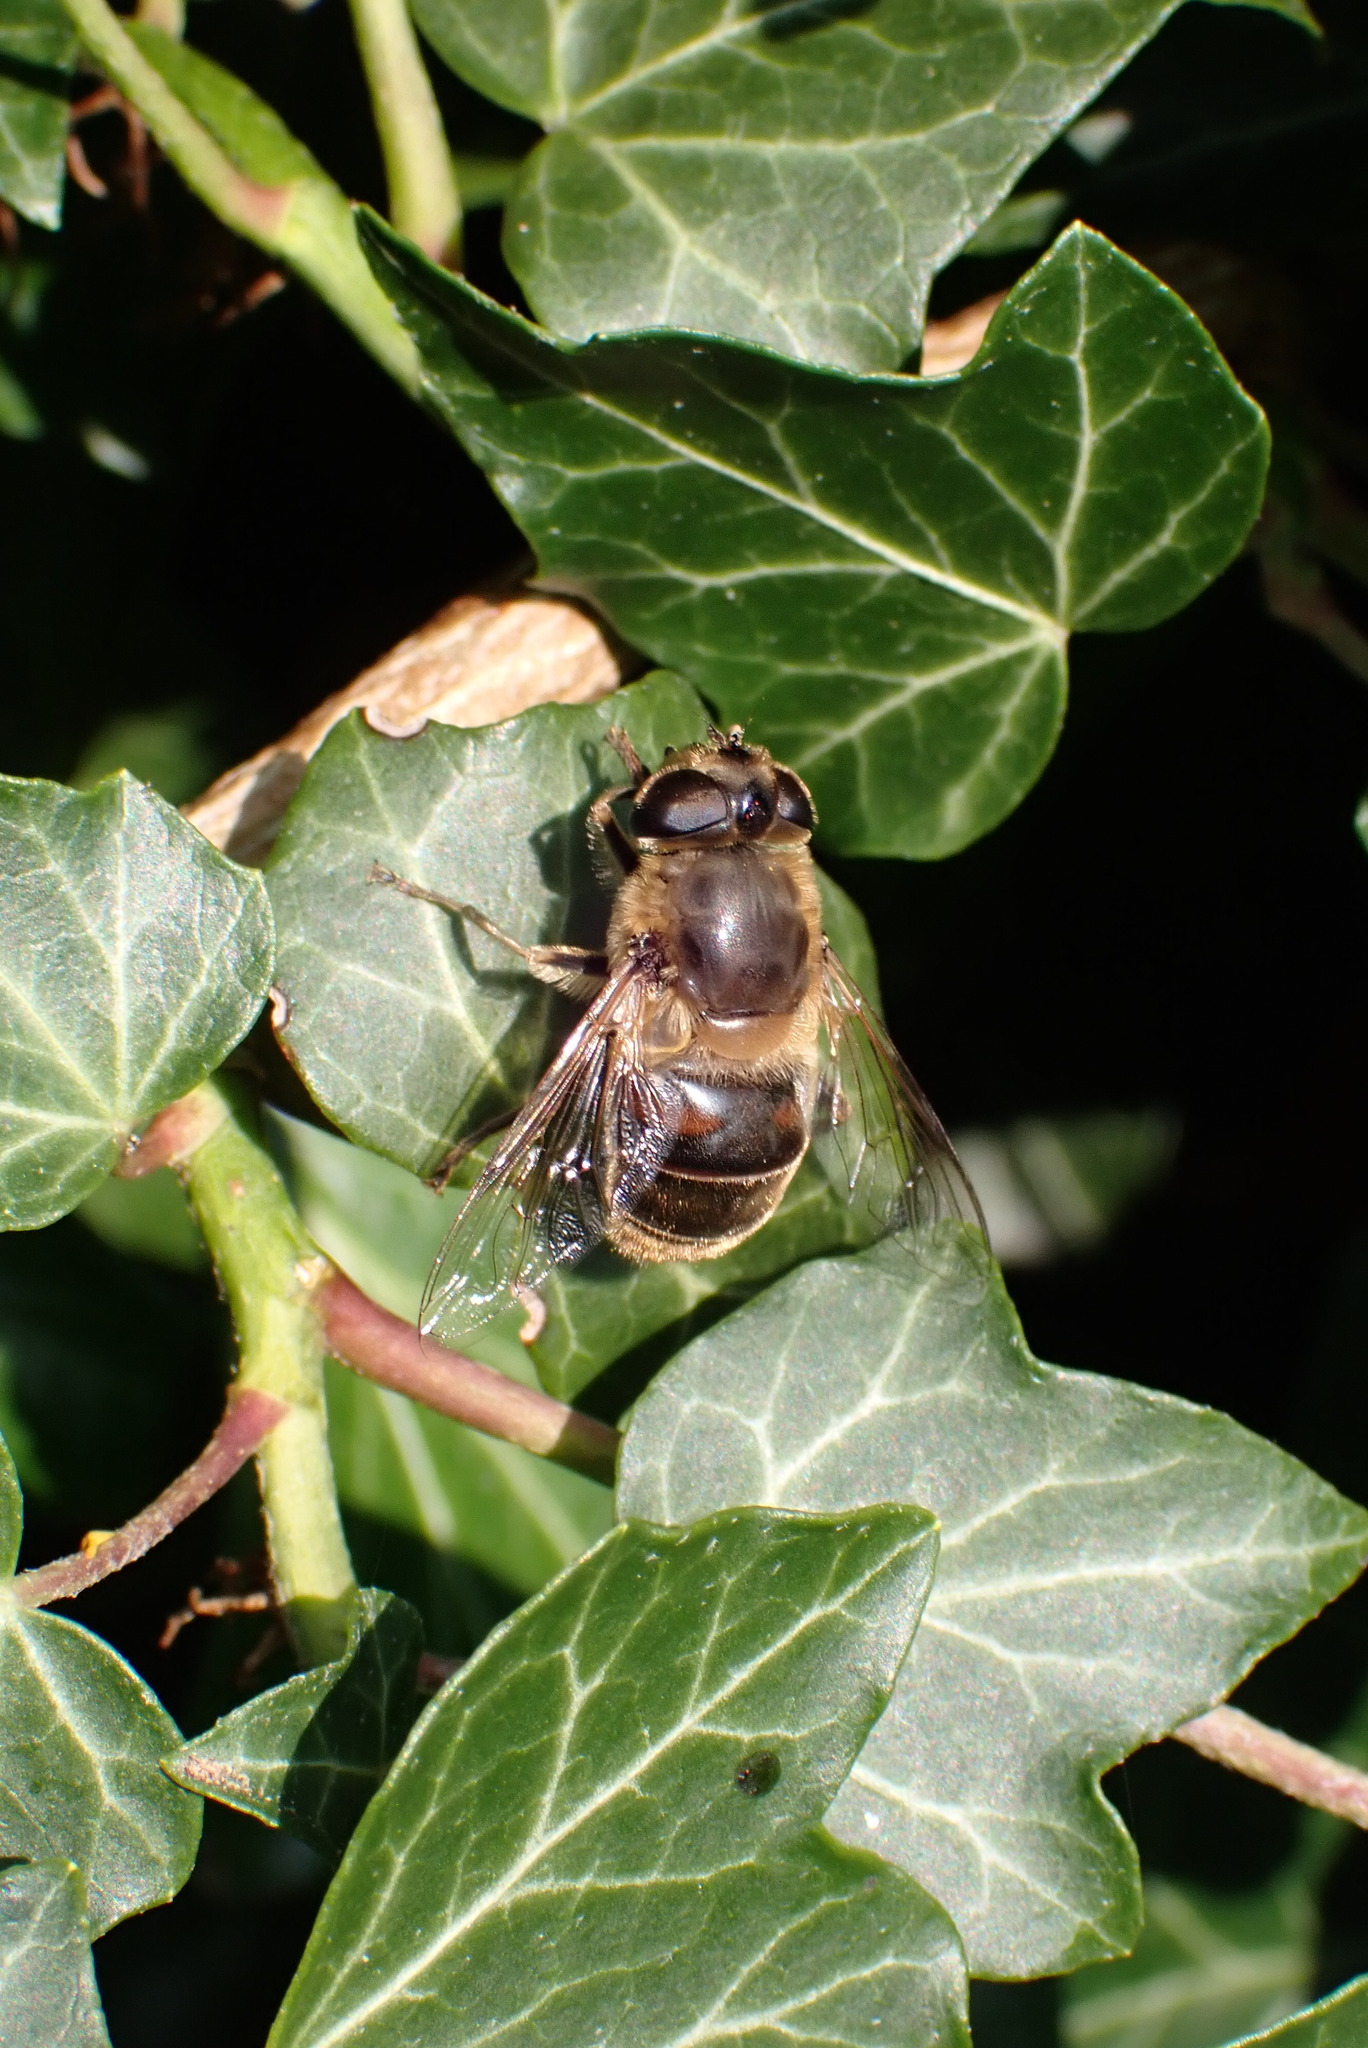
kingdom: Animalia
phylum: Arthropoda
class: Insecta
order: Diptera
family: Syrphidae
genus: Eristalis
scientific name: Eristalis tenax
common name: Drone fly
